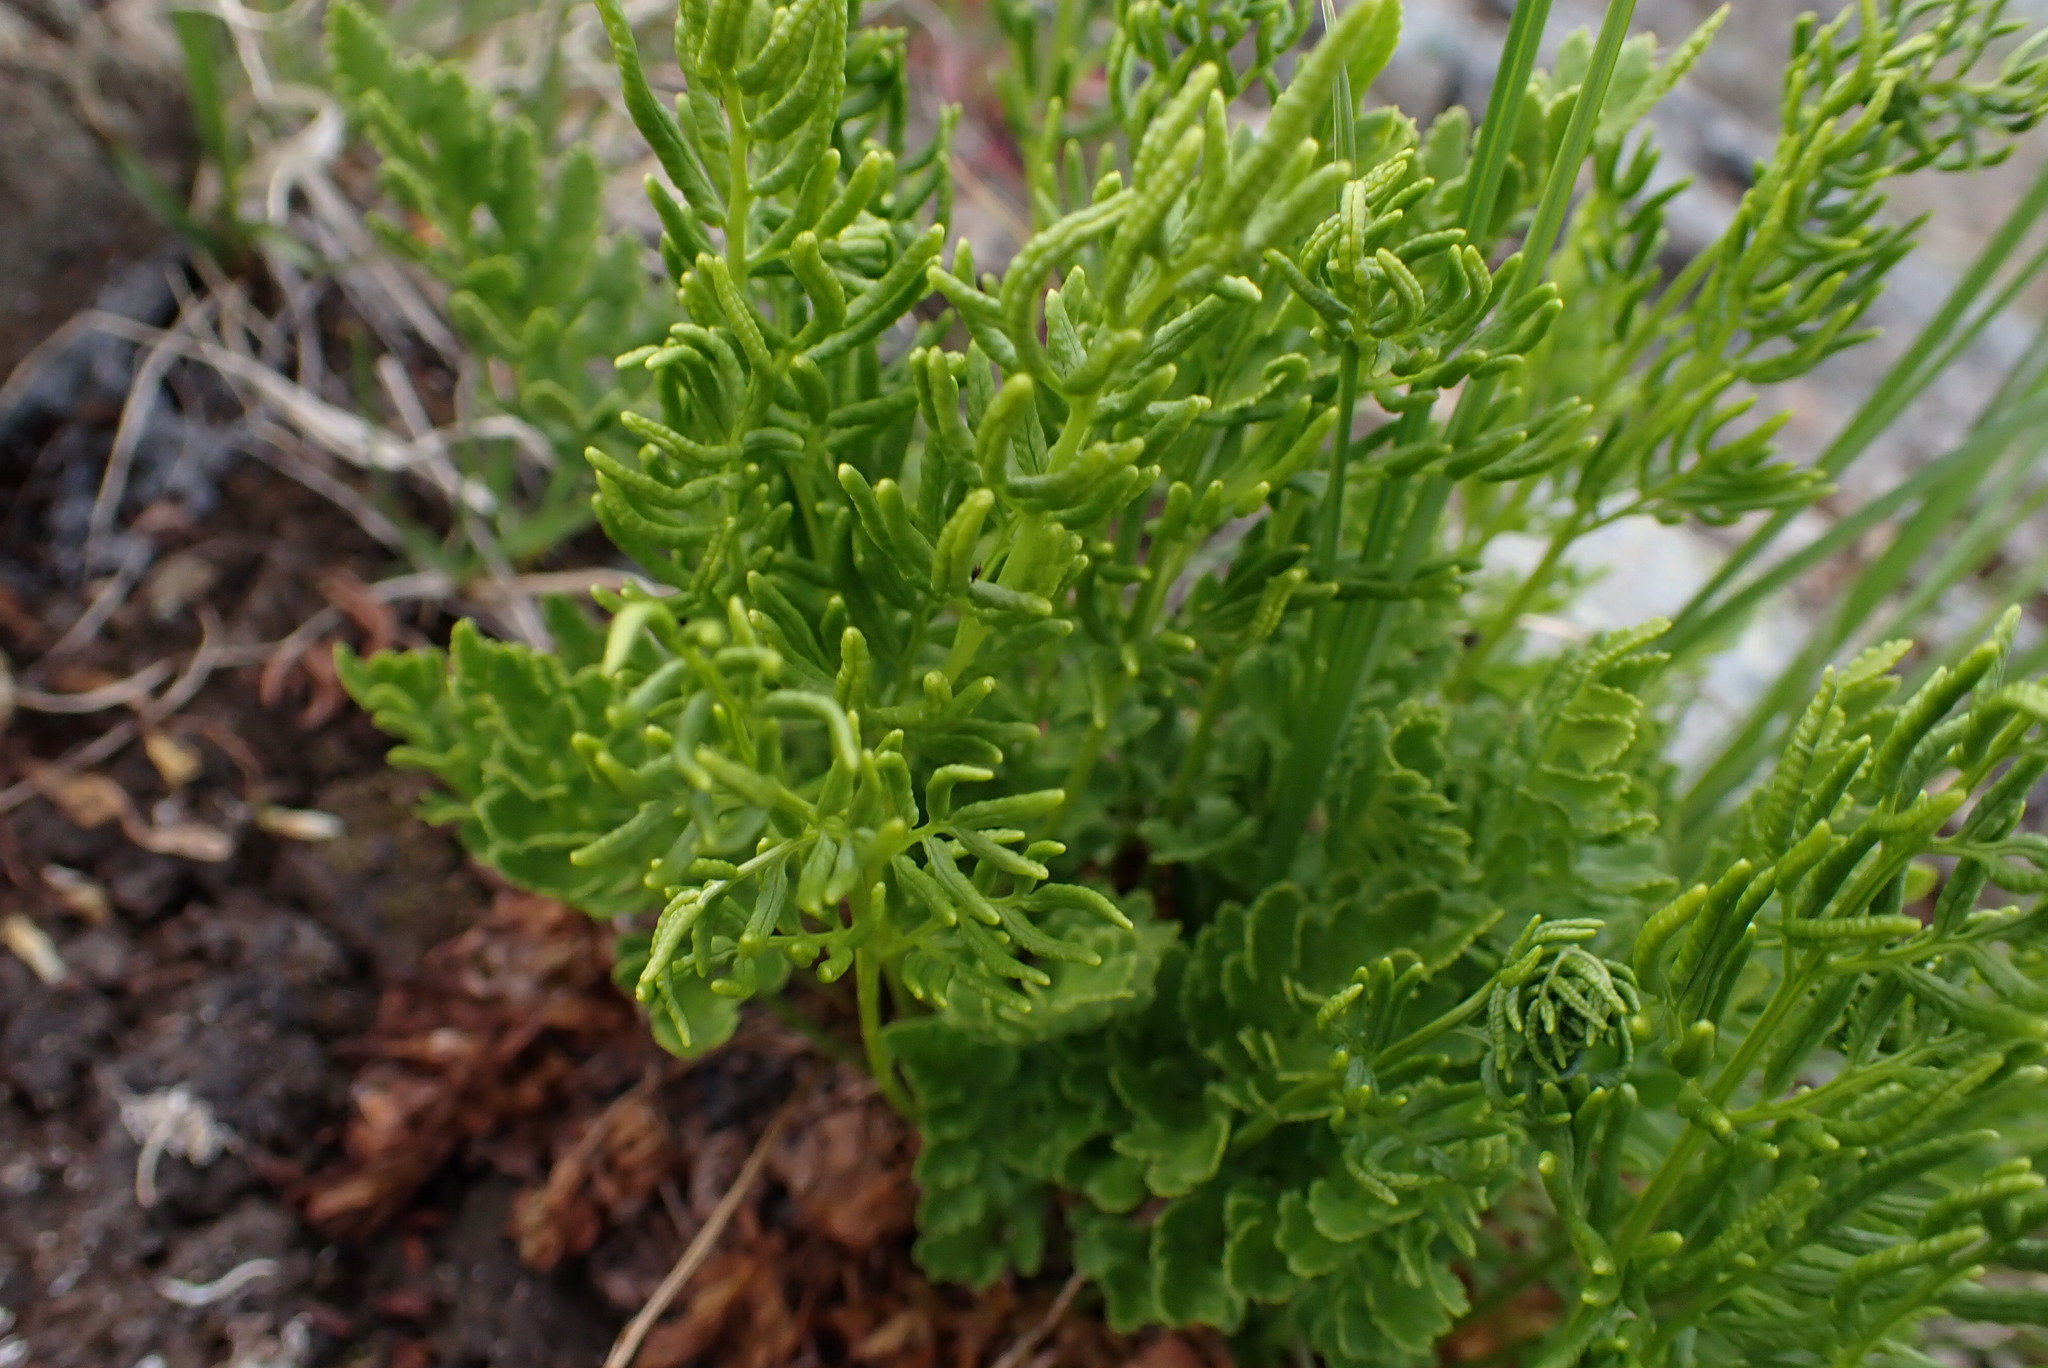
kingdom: Plantae
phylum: Tracheophyta
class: Polypodiopsida
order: Polypodiales
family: Pteridaceae
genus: Cryptogramma
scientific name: Cryptogramma acrostichoides
